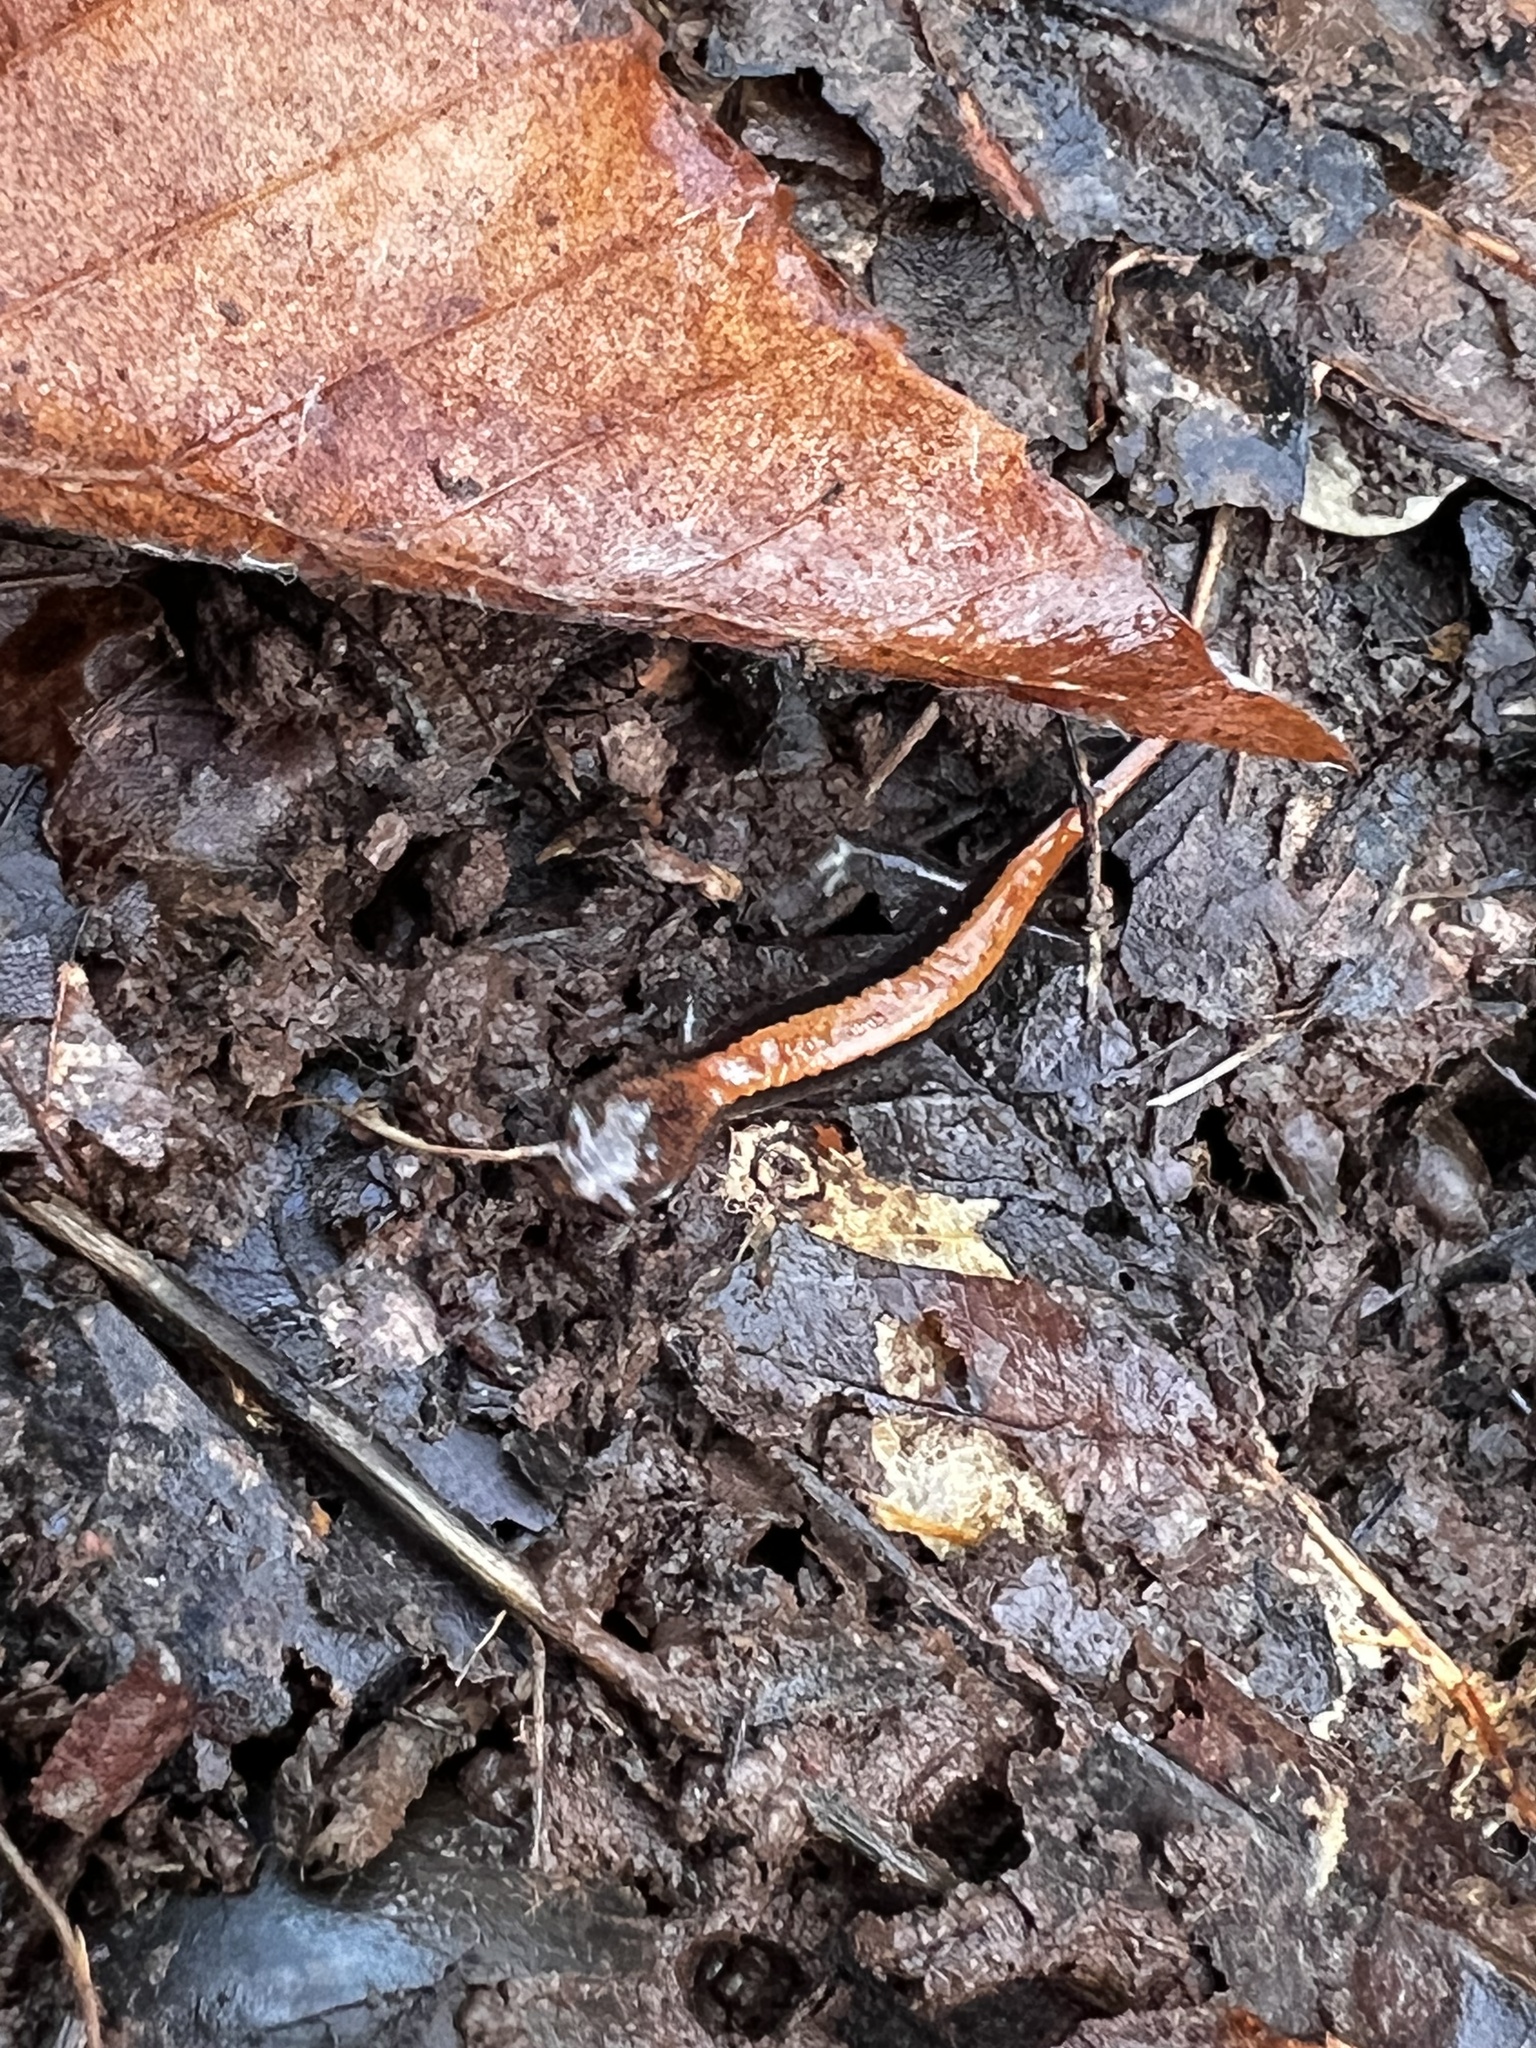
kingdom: Animalia
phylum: Chordata
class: Amphibia
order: Caudata
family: Plethodontidae
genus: Plethodon
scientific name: Plethodon cinereus
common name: Redback salamander
